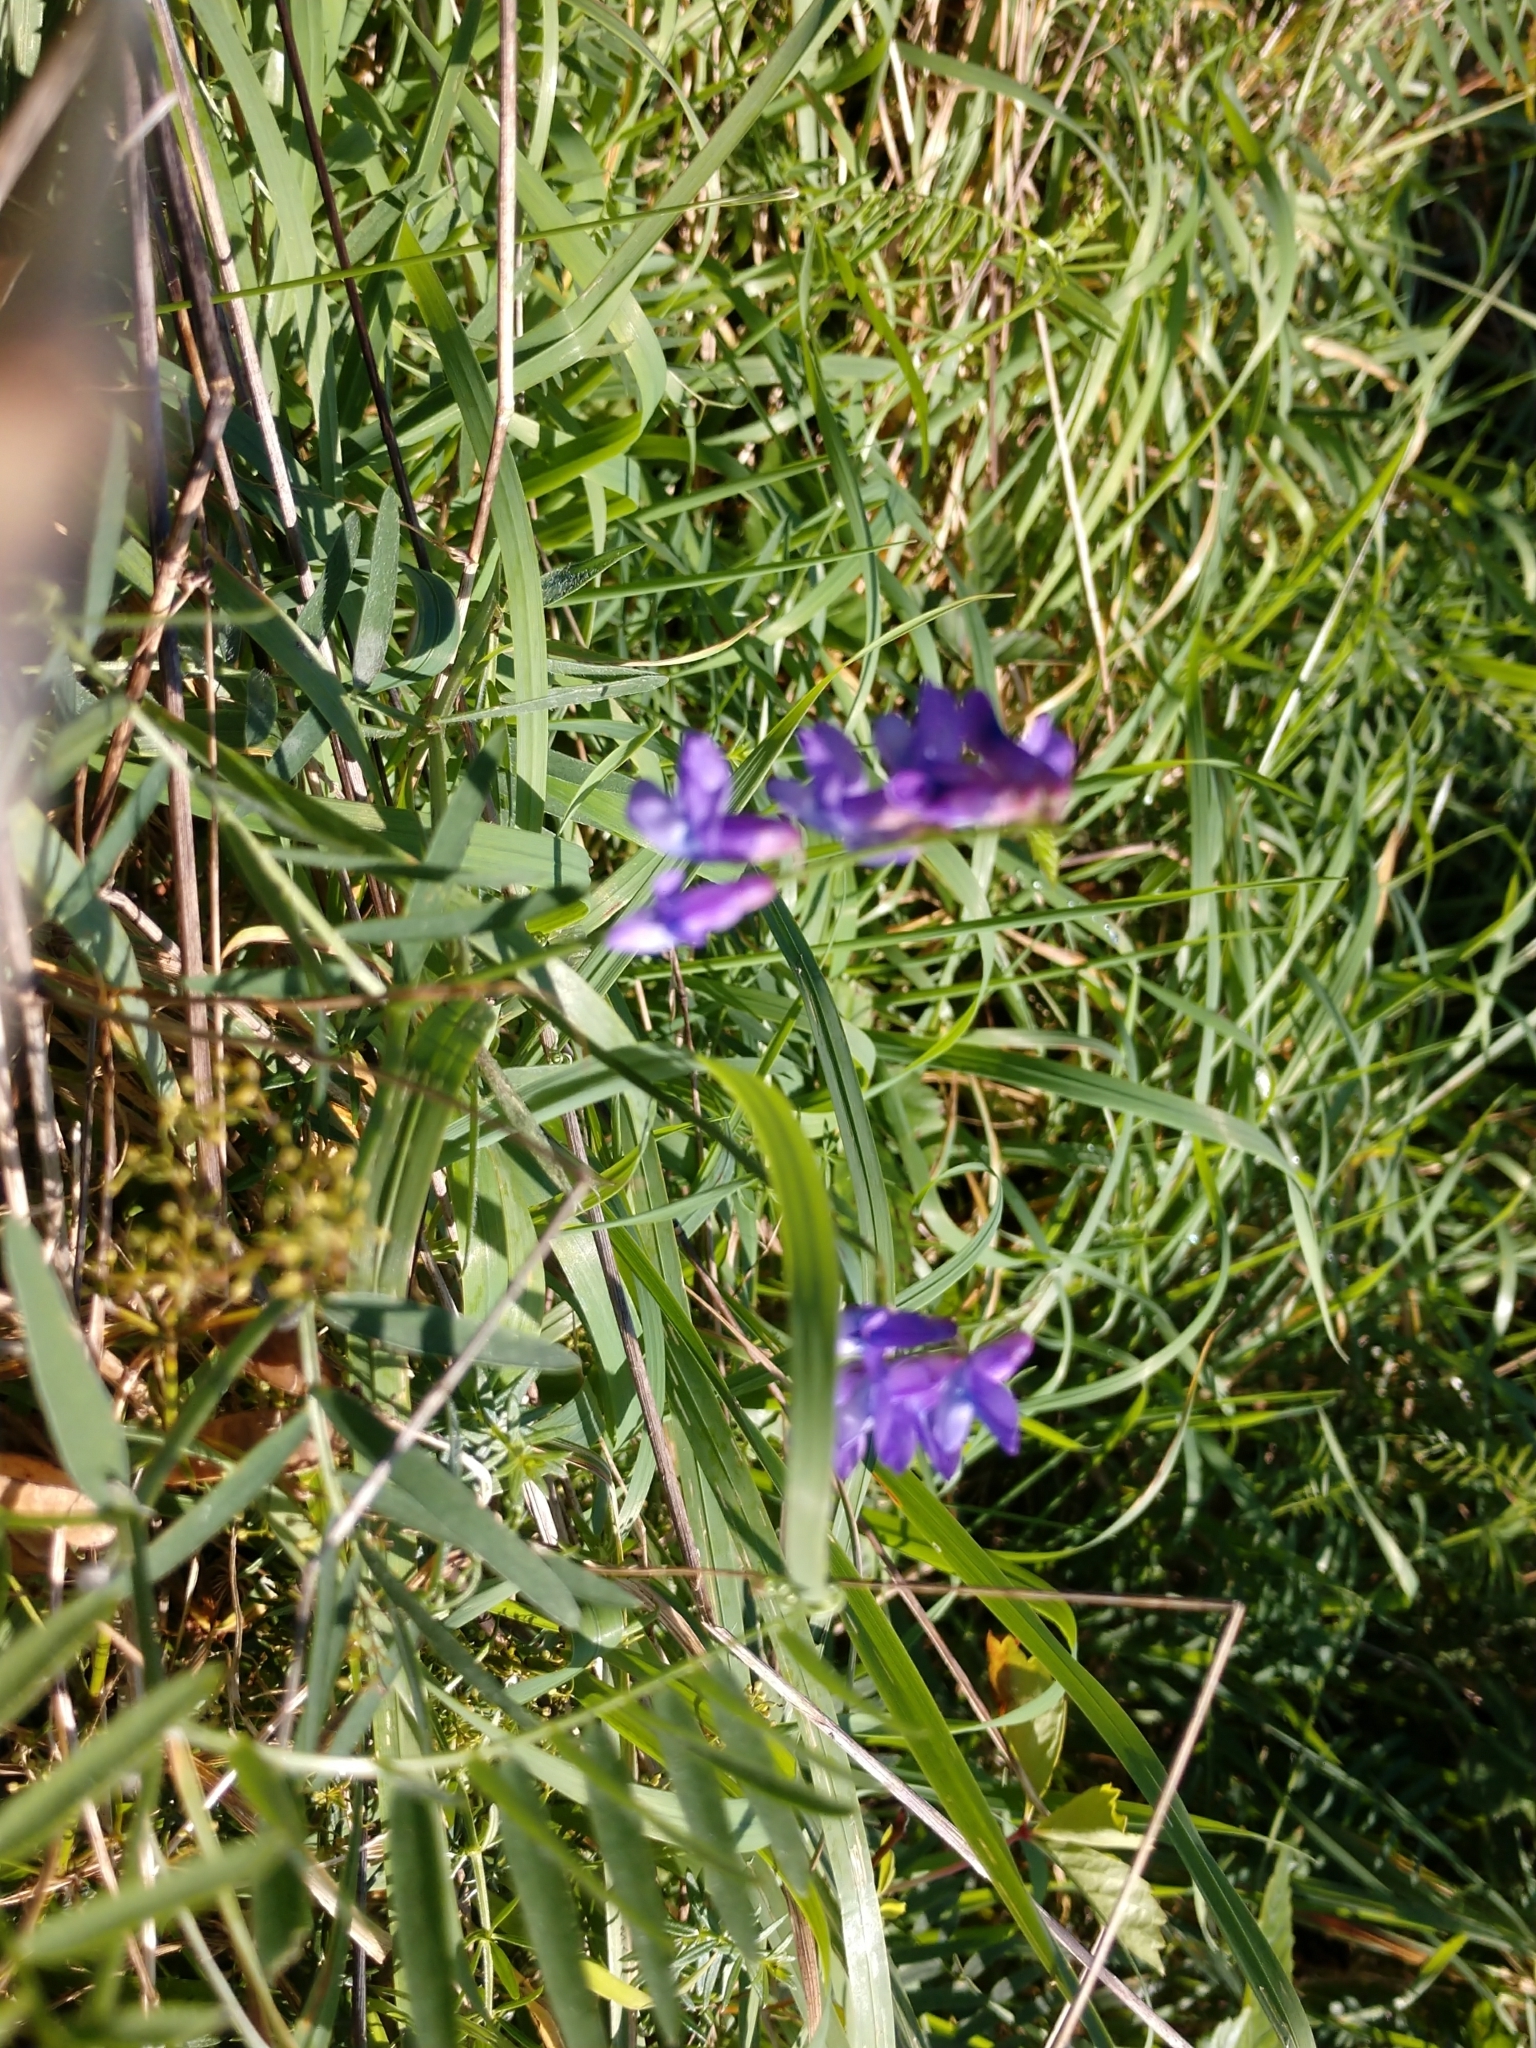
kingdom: Plantae
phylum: Tracheophyta
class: Magnoliopsida
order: Fabales
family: Fabaceae
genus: Vicia
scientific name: Vicia cracca
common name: Bird vetch
